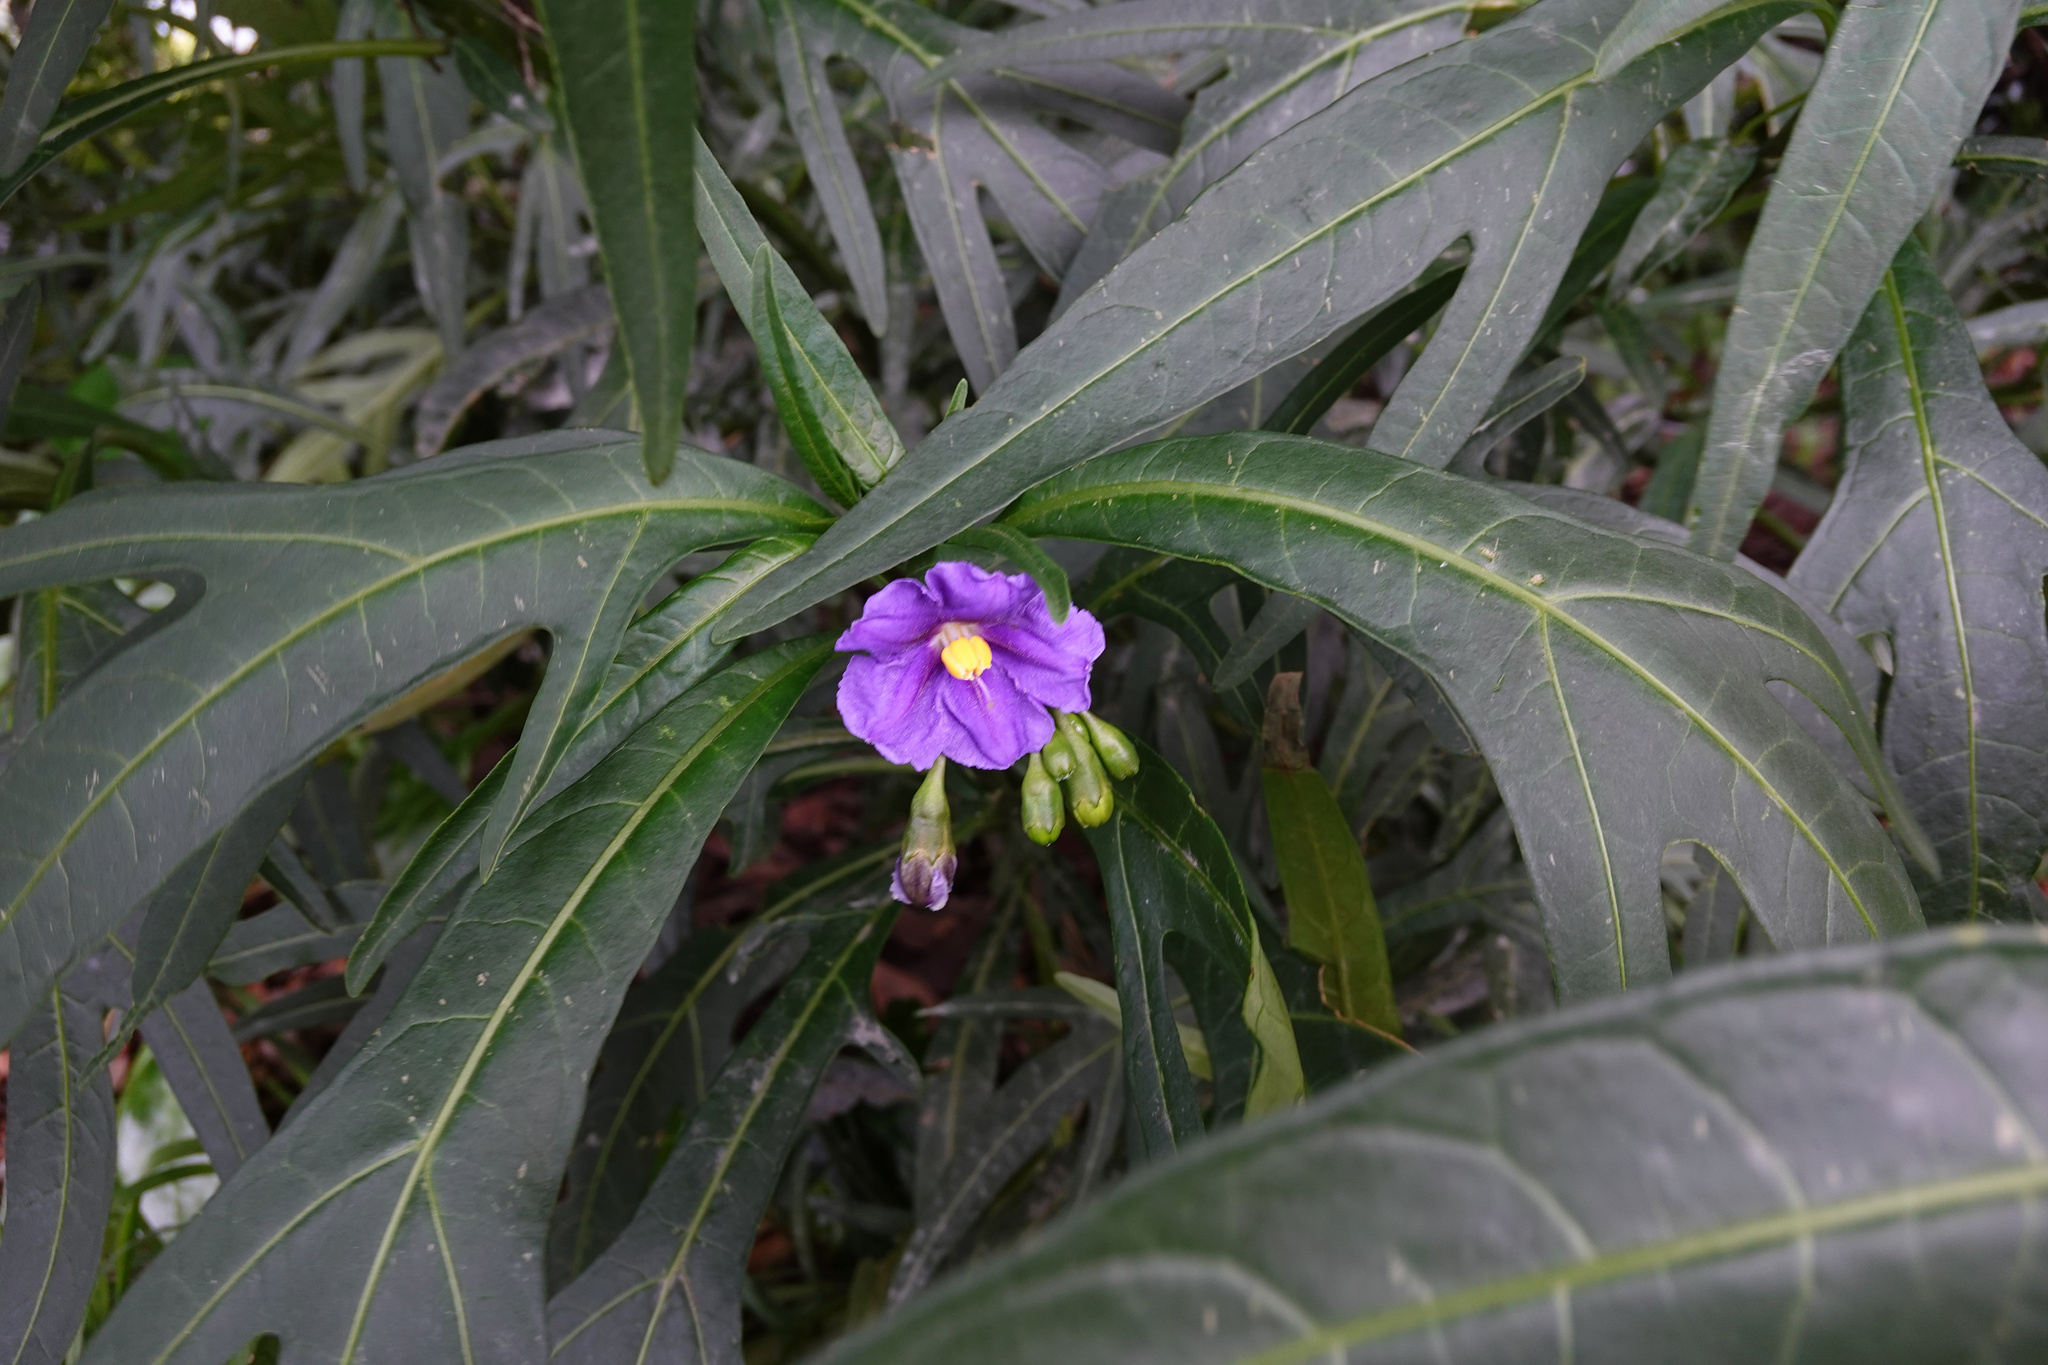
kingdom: Plantae
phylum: Tracheophyta
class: Magnoliopsida
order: Solanales
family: Solanaceae
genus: Solanum
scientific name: Solanum laciniatum
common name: Kangaroo-apple
